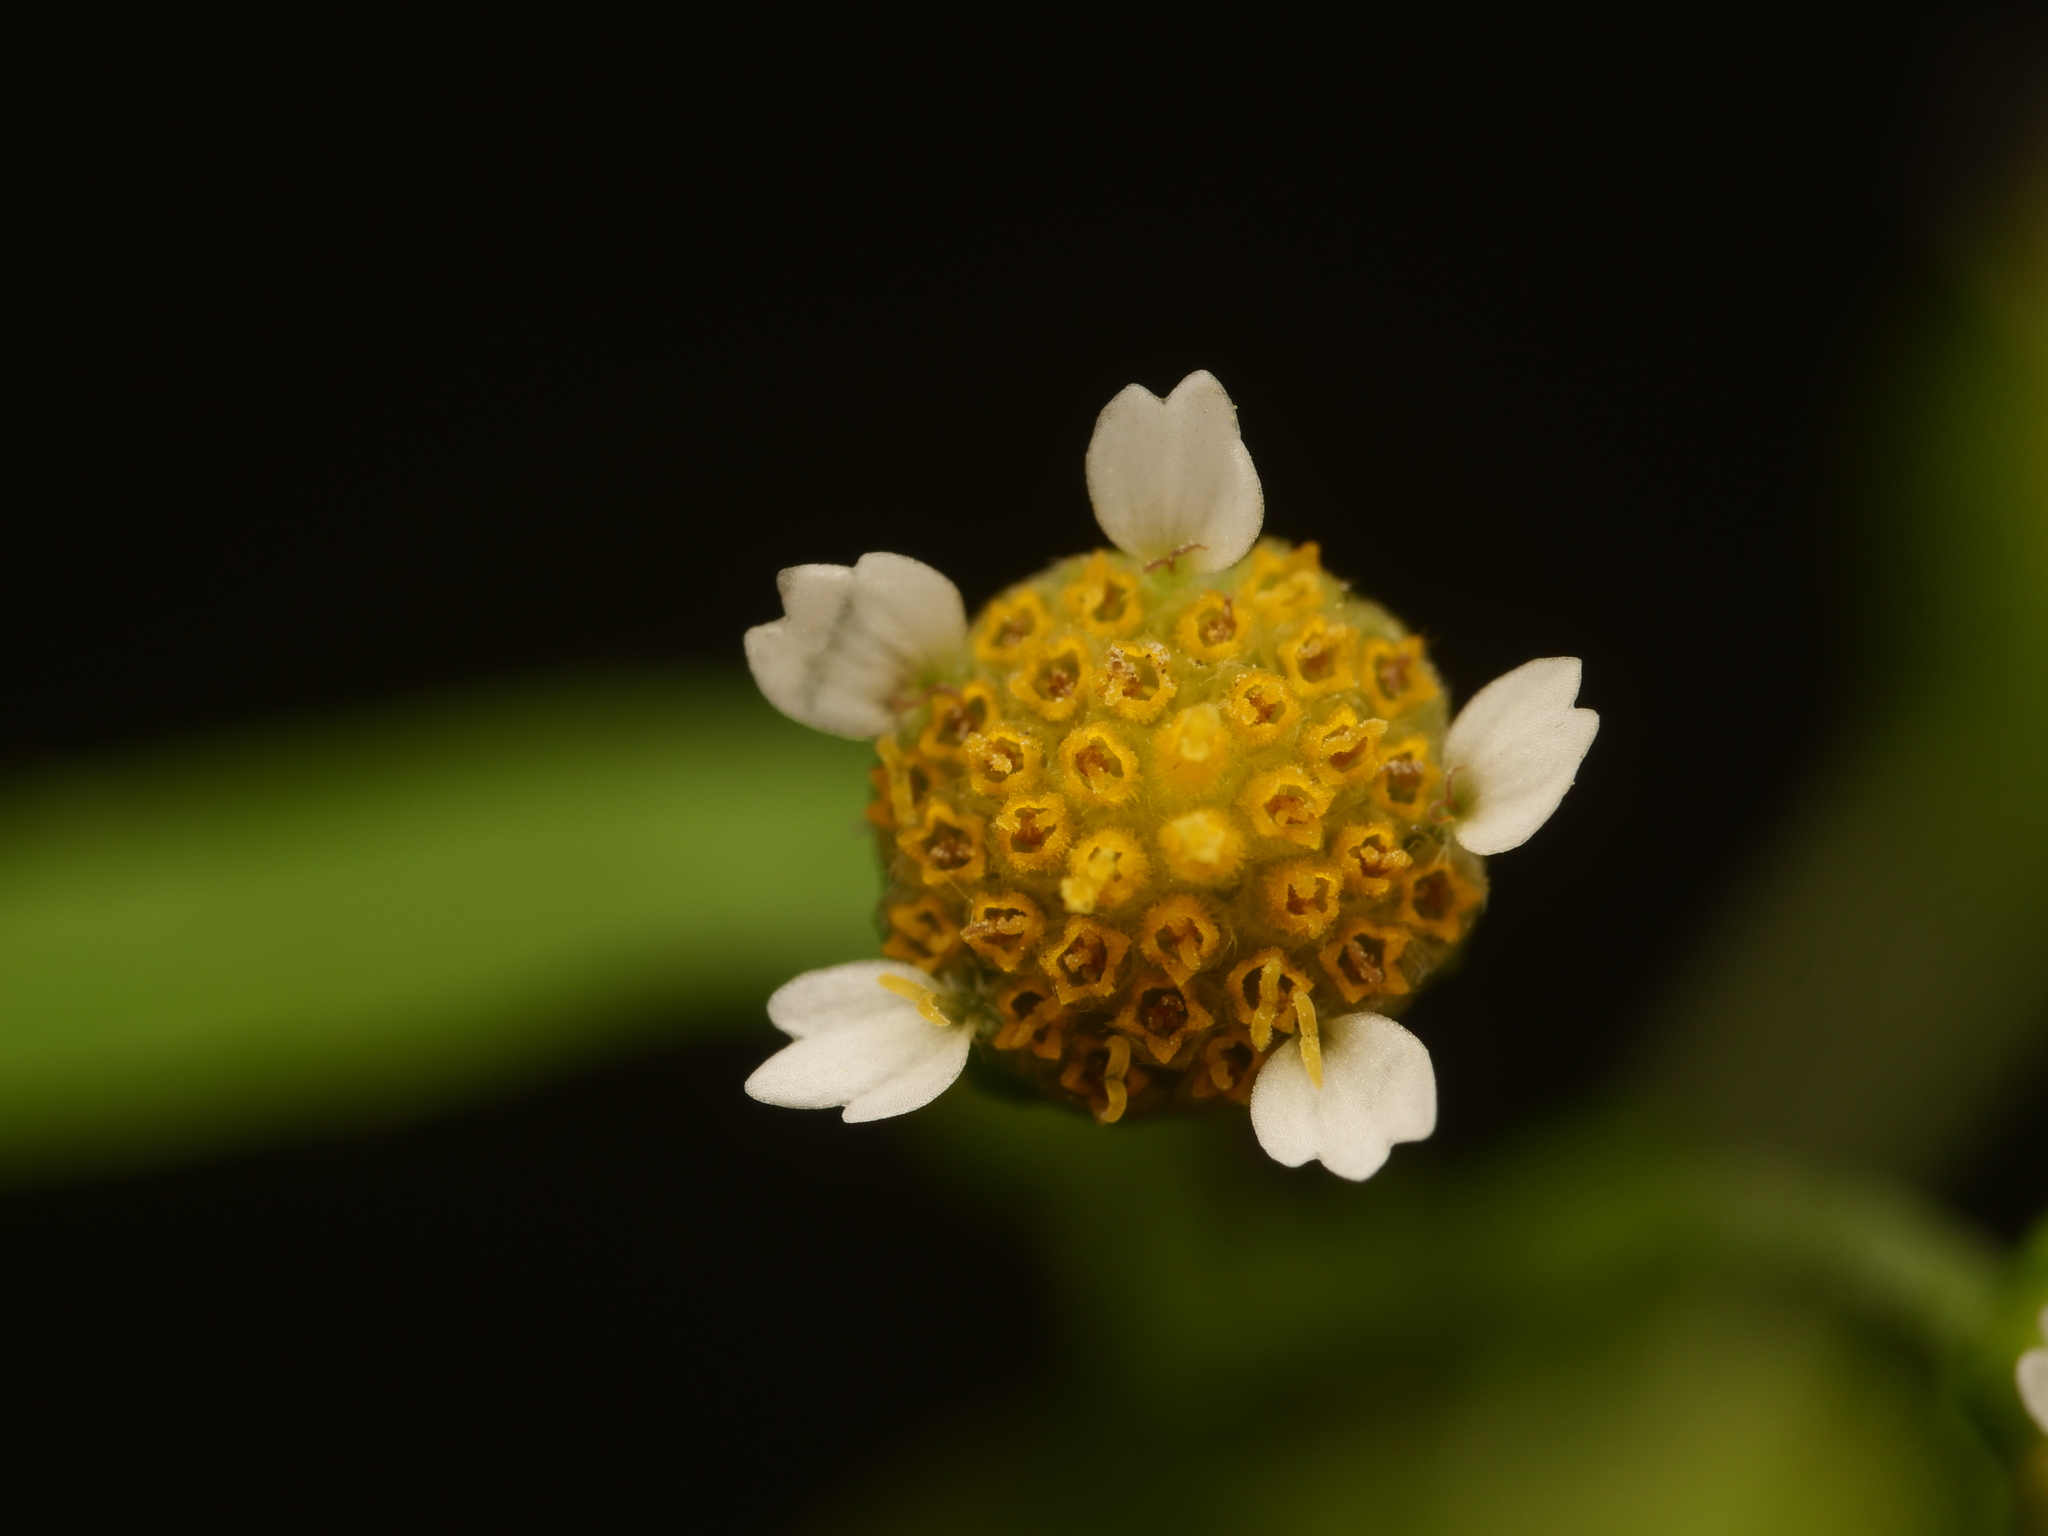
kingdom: Plantae
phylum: Tracheophyta
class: Magnoliopsida
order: Asterales
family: Asteraceae
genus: Galinsoga
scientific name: Galinsoga parviflora
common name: Gallant soldier
